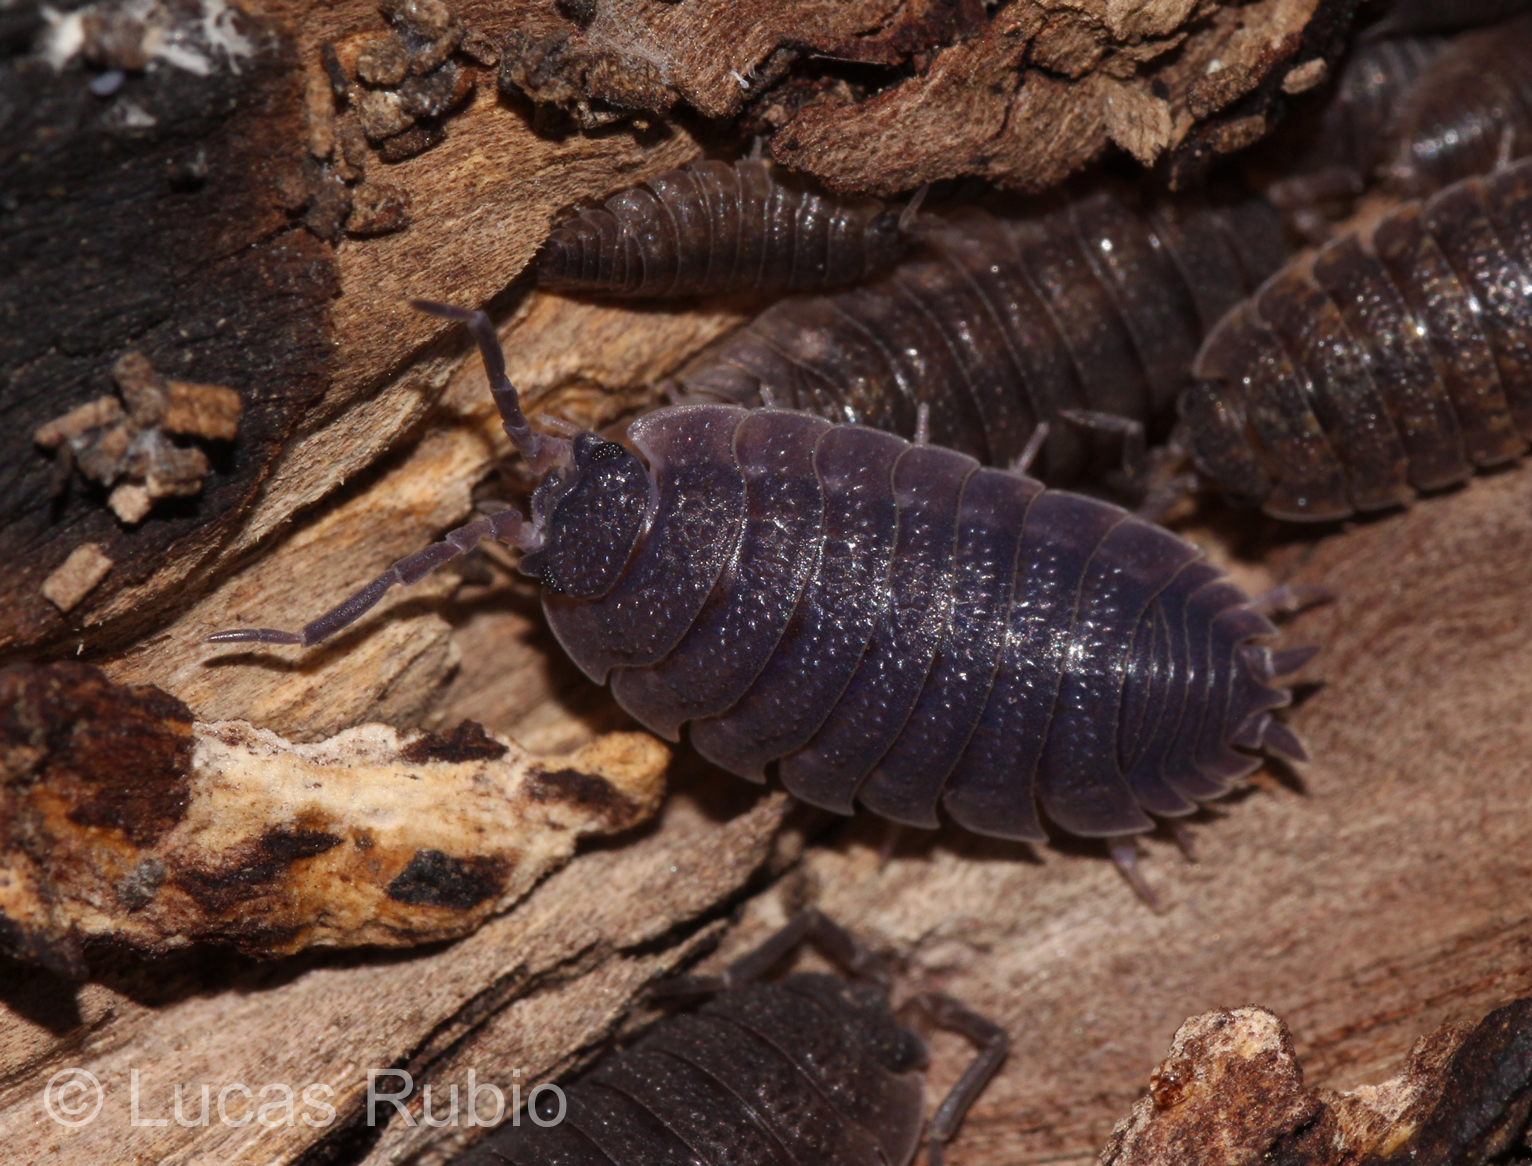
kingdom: Viruses
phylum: Nucleocytoviricota
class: Megaviricetes
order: Pimascovirales
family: Iridoviridae
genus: Iridovirus
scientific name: Iridovirus Invertebrate iridescent virus 31
